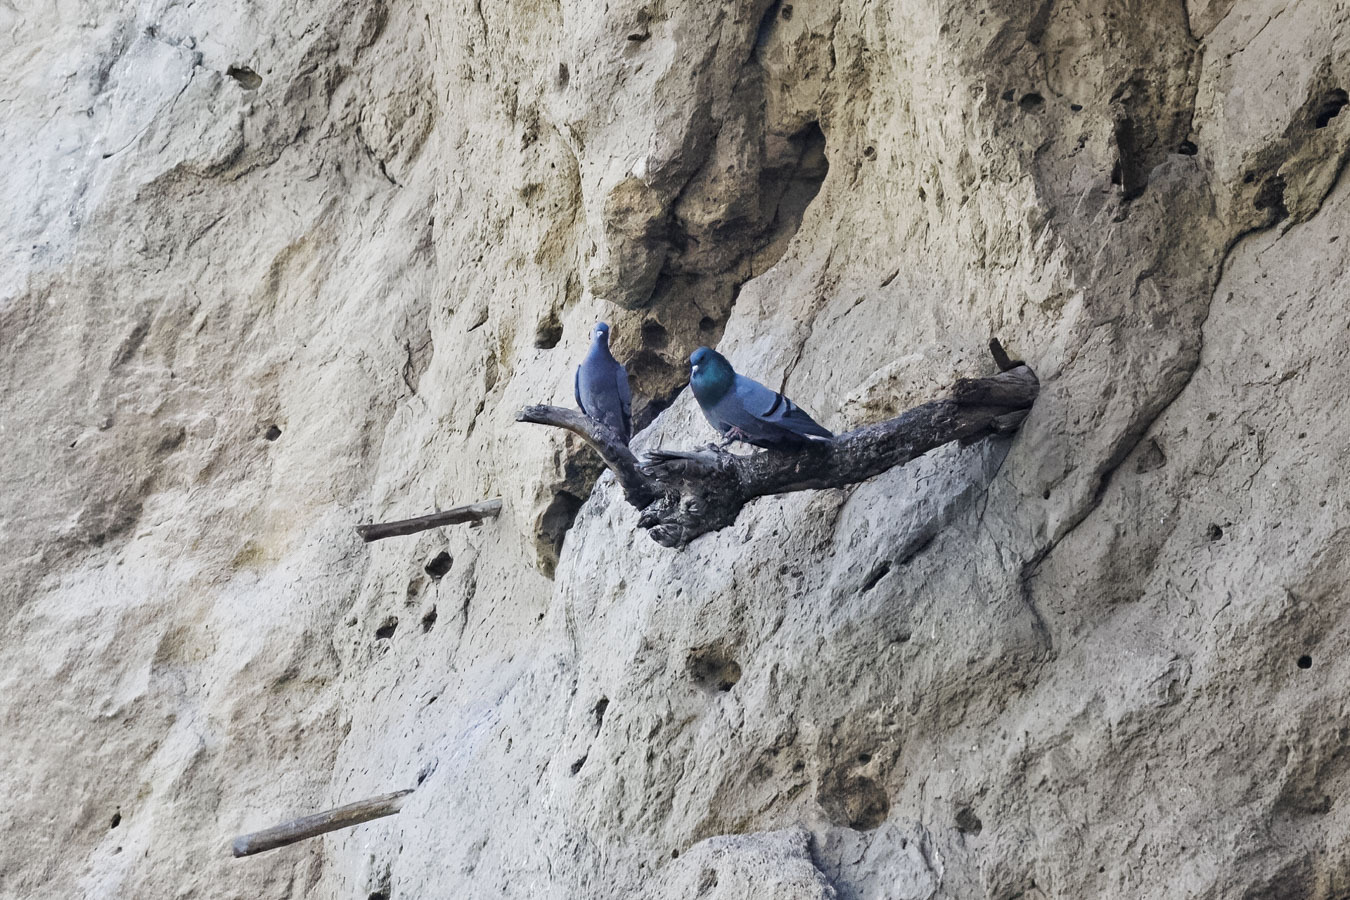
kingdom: Animalia
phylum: Chordata
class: Aves
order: Columbiformes
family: Columbidae
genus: Columba
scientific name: Columba livia
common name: Rock pigeon
